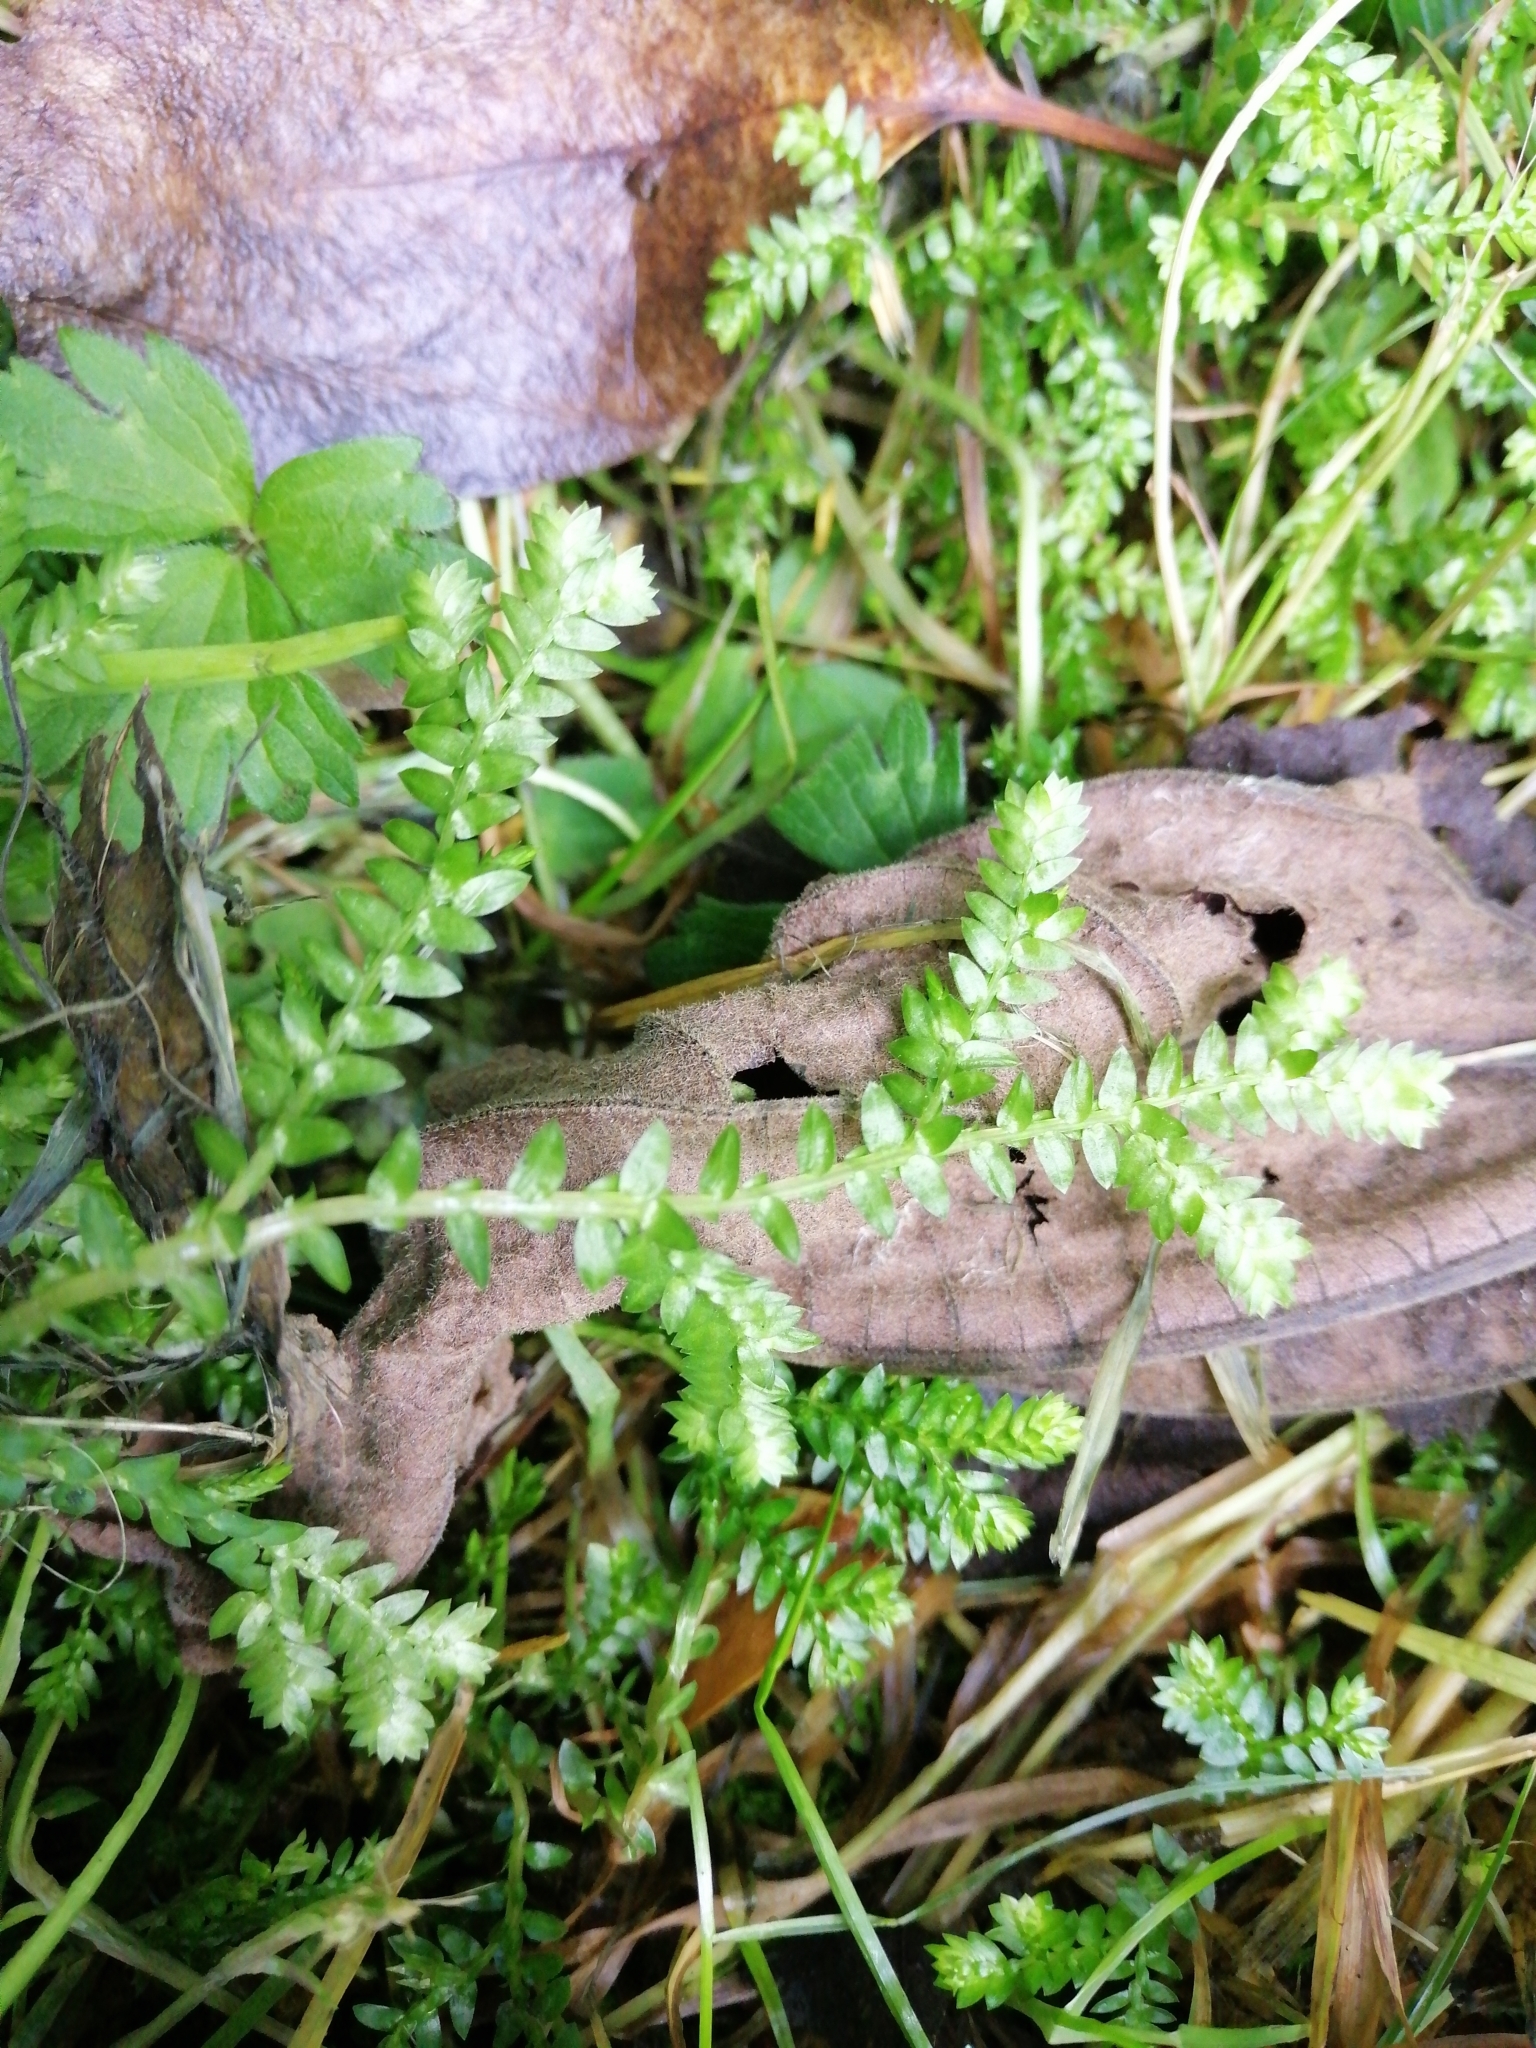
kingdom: Plantae
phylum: Tracheophyta
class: Lycopodiopsida
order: Selaginellales
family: Selaginellaceae
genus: Selaginella
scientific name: Selaginella kraussiana
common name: Krauss' spikemoss
